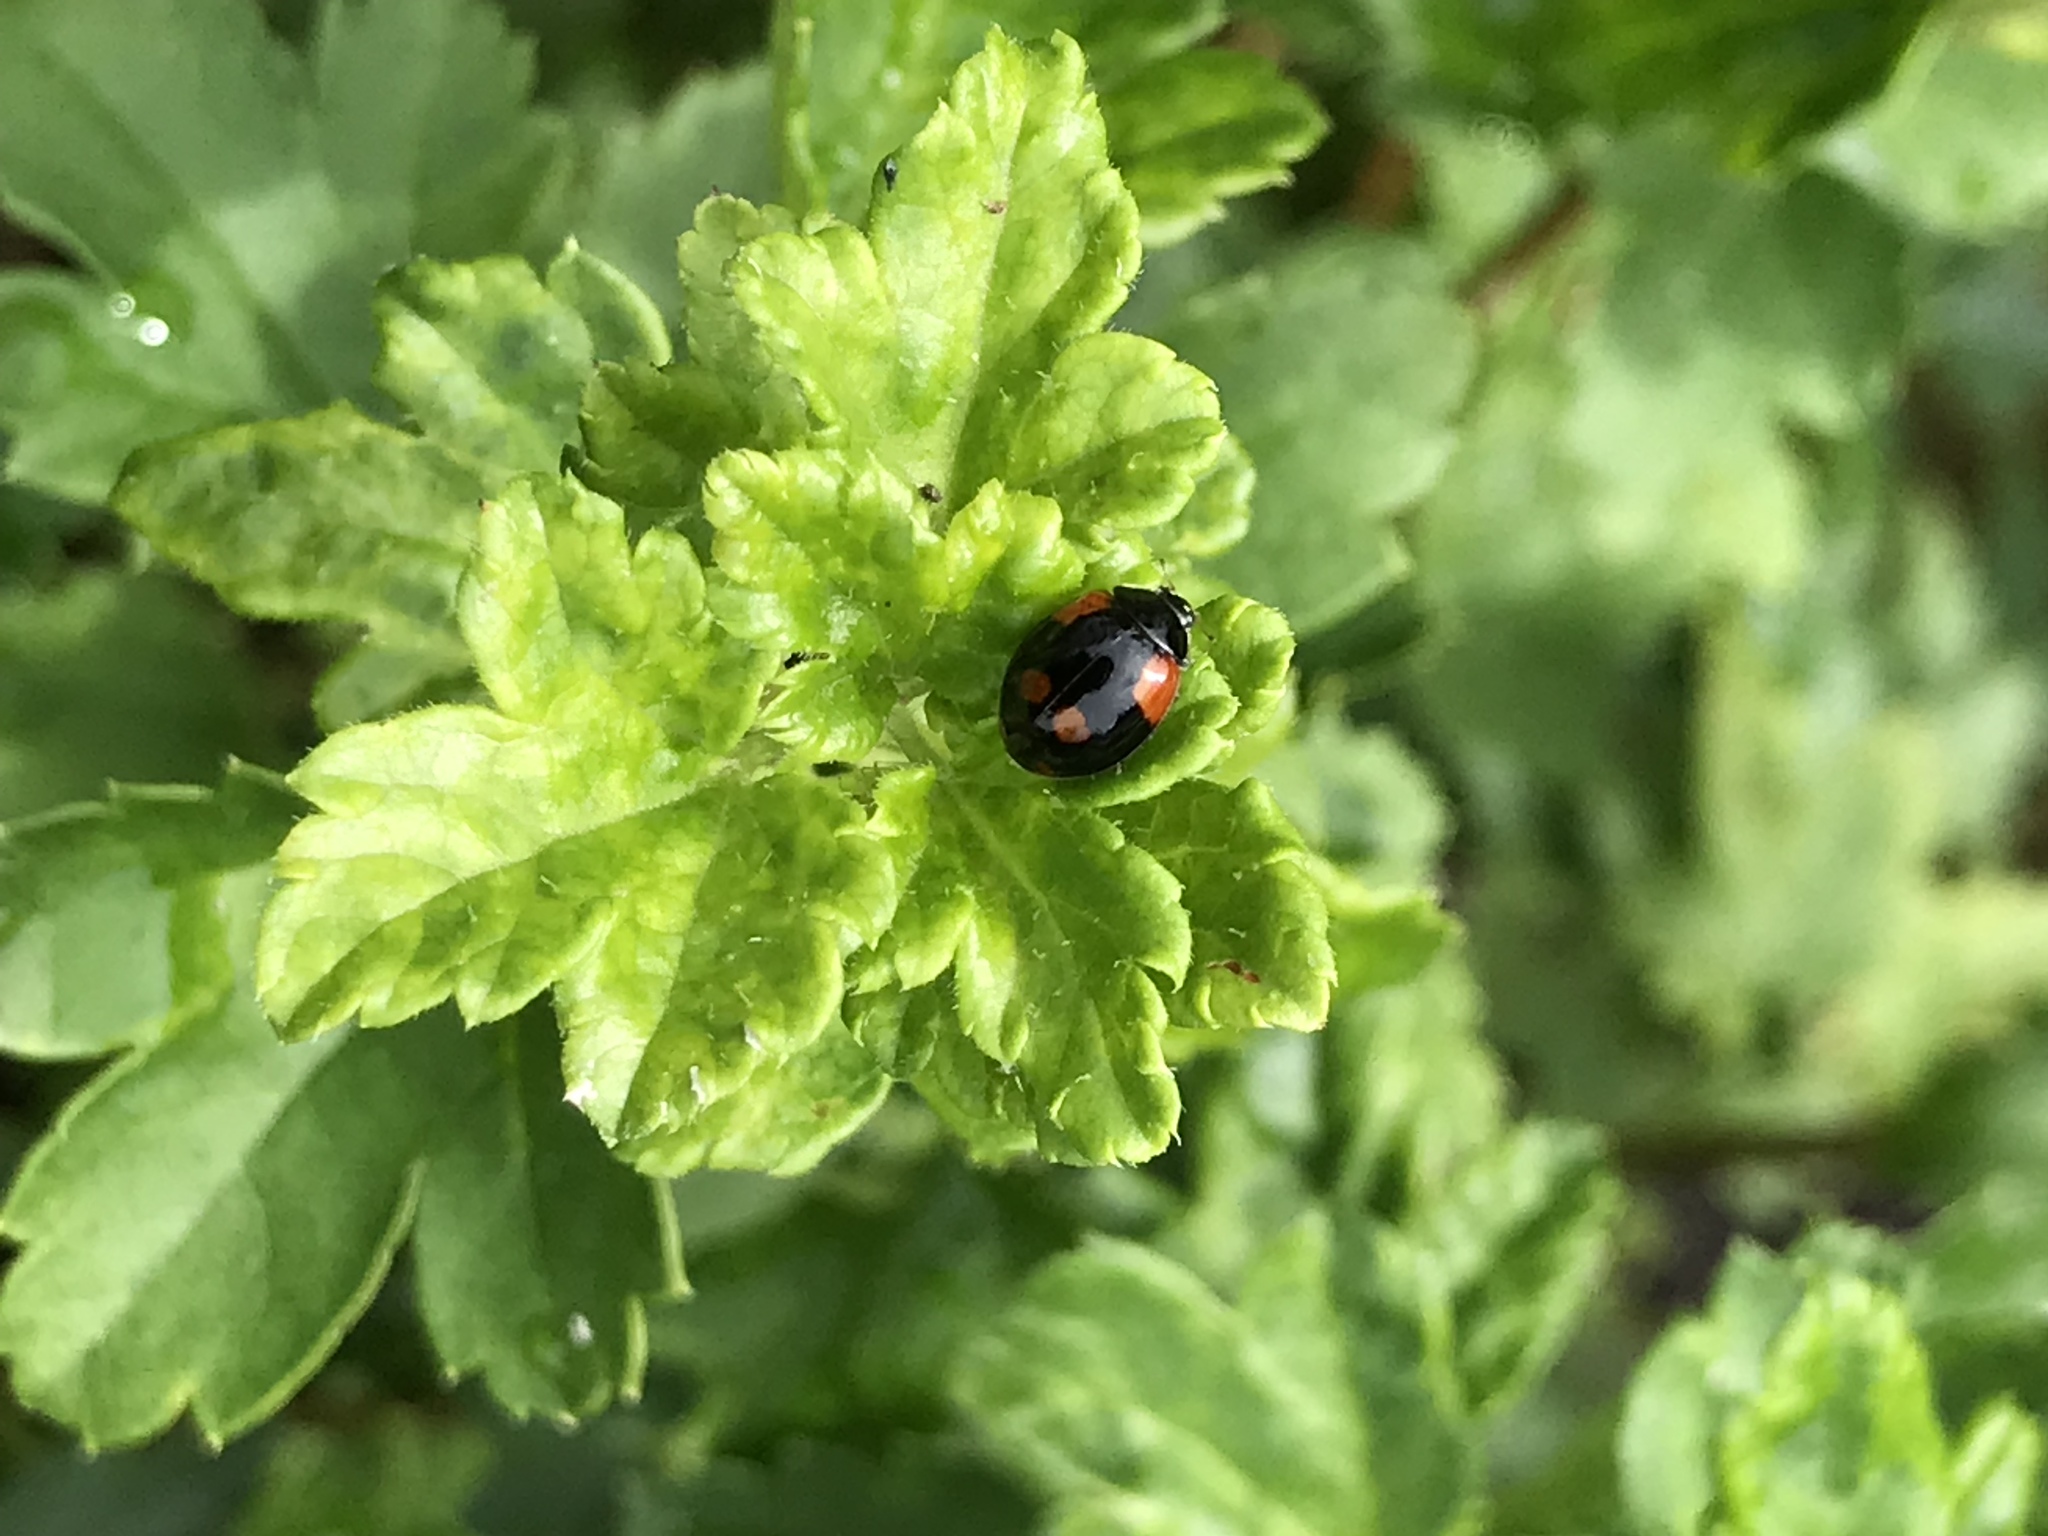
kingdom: Animalia
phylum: Arthropoda
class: Insecta
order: Coleoptera
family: Coccinellidae
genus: Adalia
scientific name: Adalia bipunctata
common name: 2-spot ladybird
